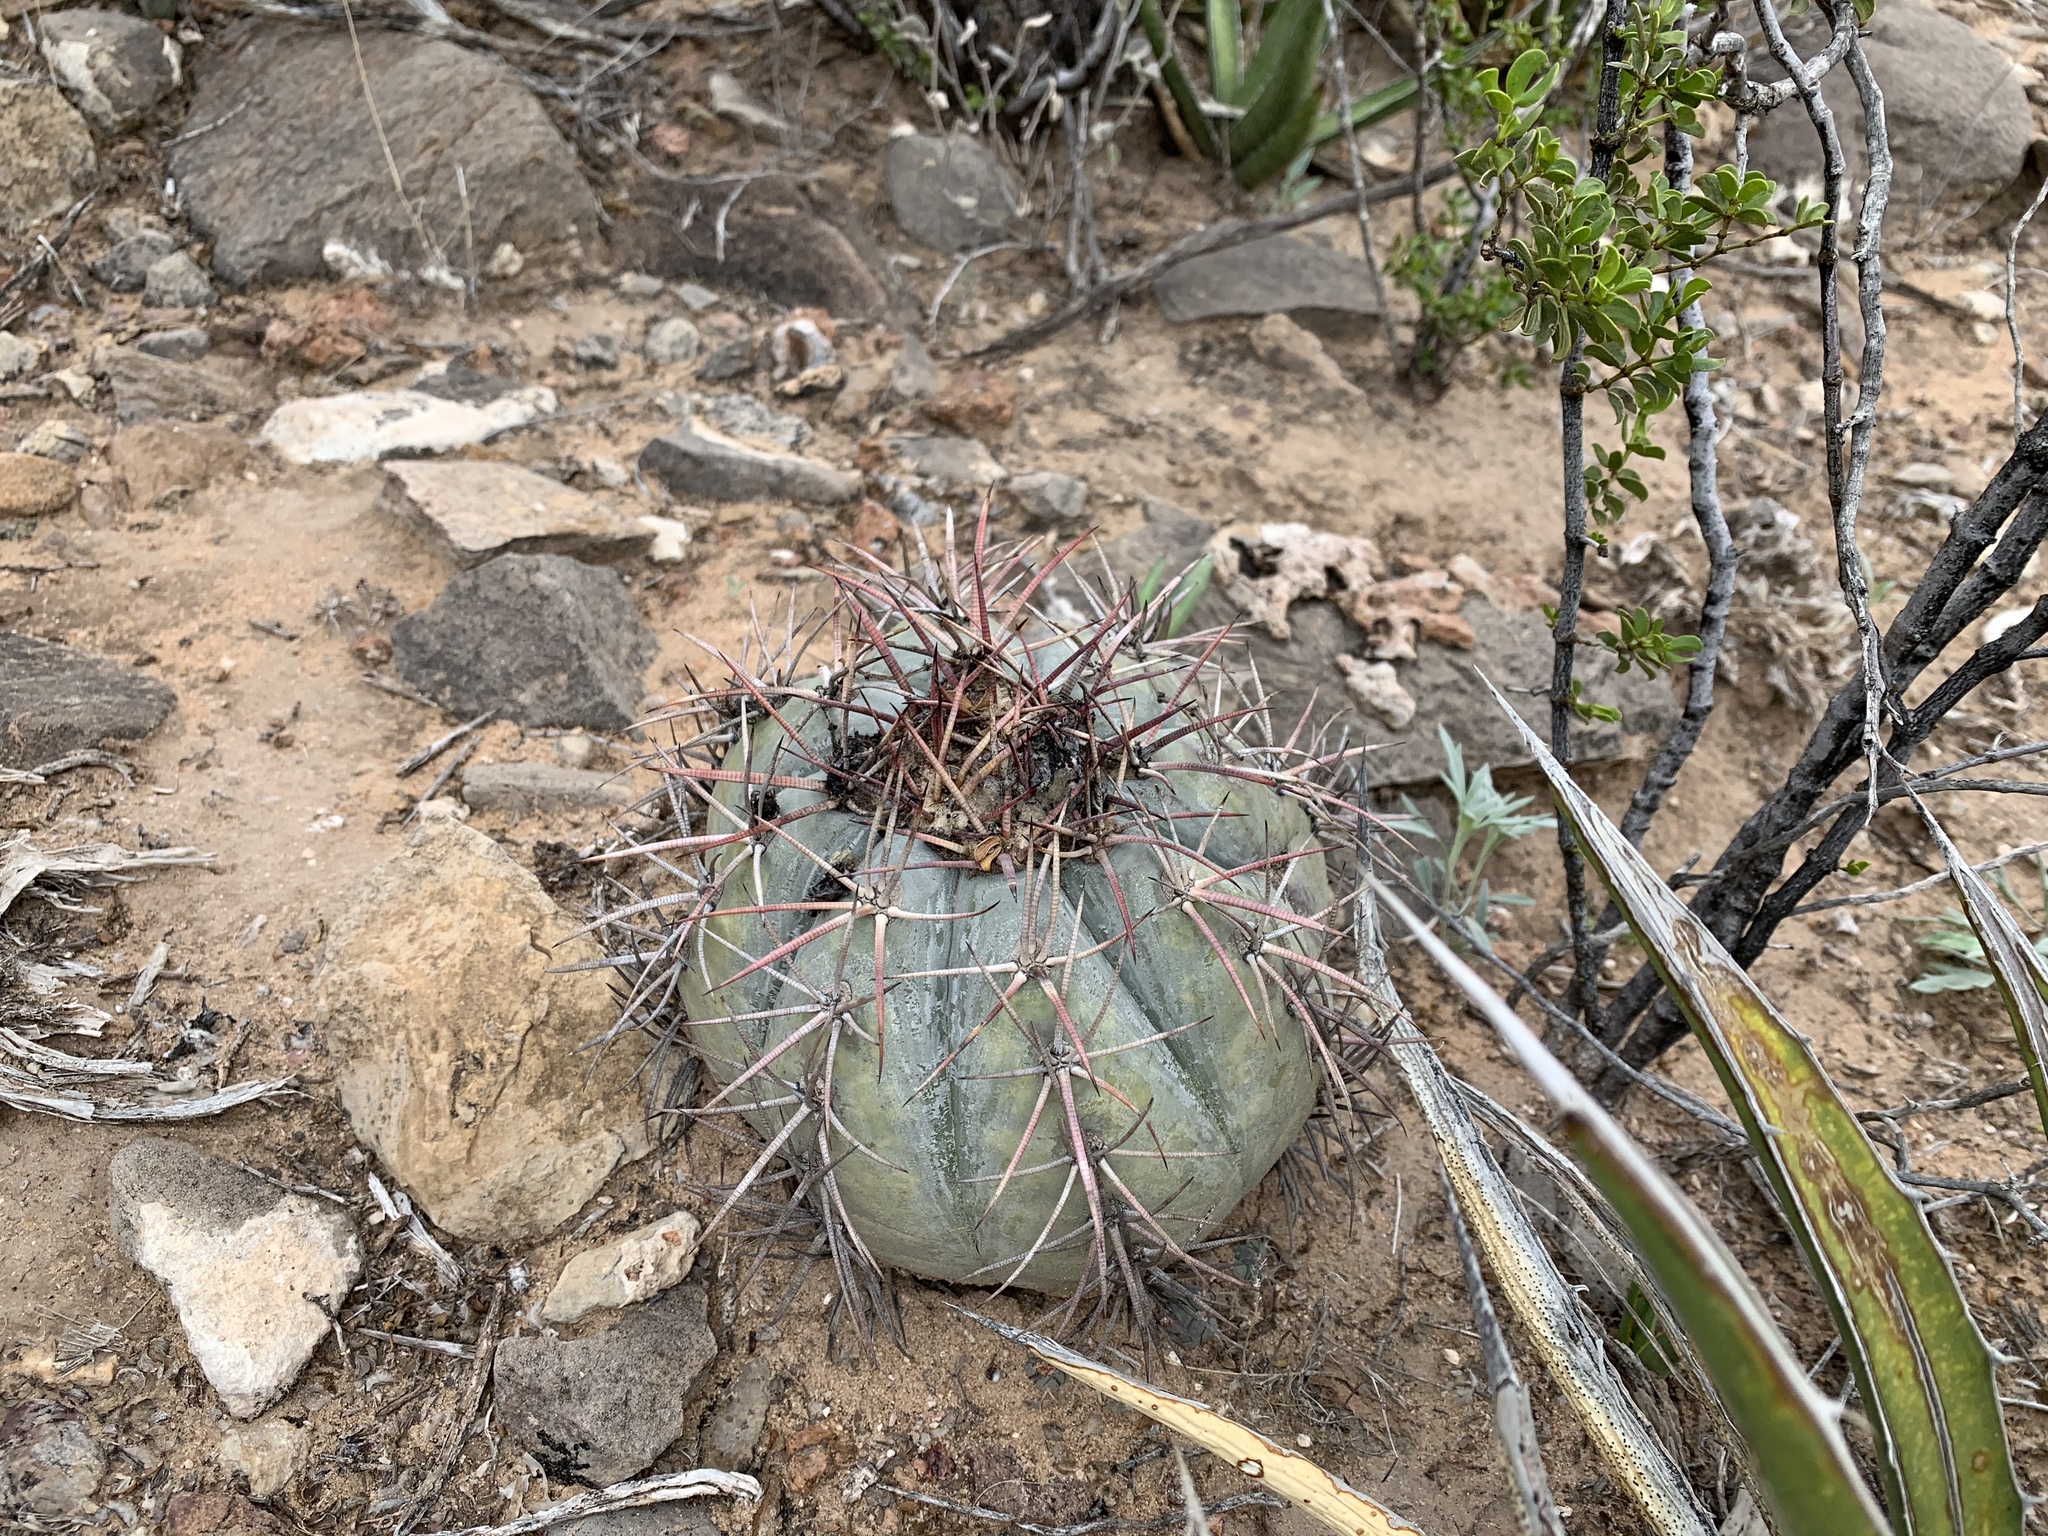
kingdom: Plantae
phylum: Tracheophyta
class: Magnoliopsida
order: Caryophyllales
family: Cactaceae
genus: Echinocactus
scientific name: Echinocactus horizonthalonius
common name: Devilshead
